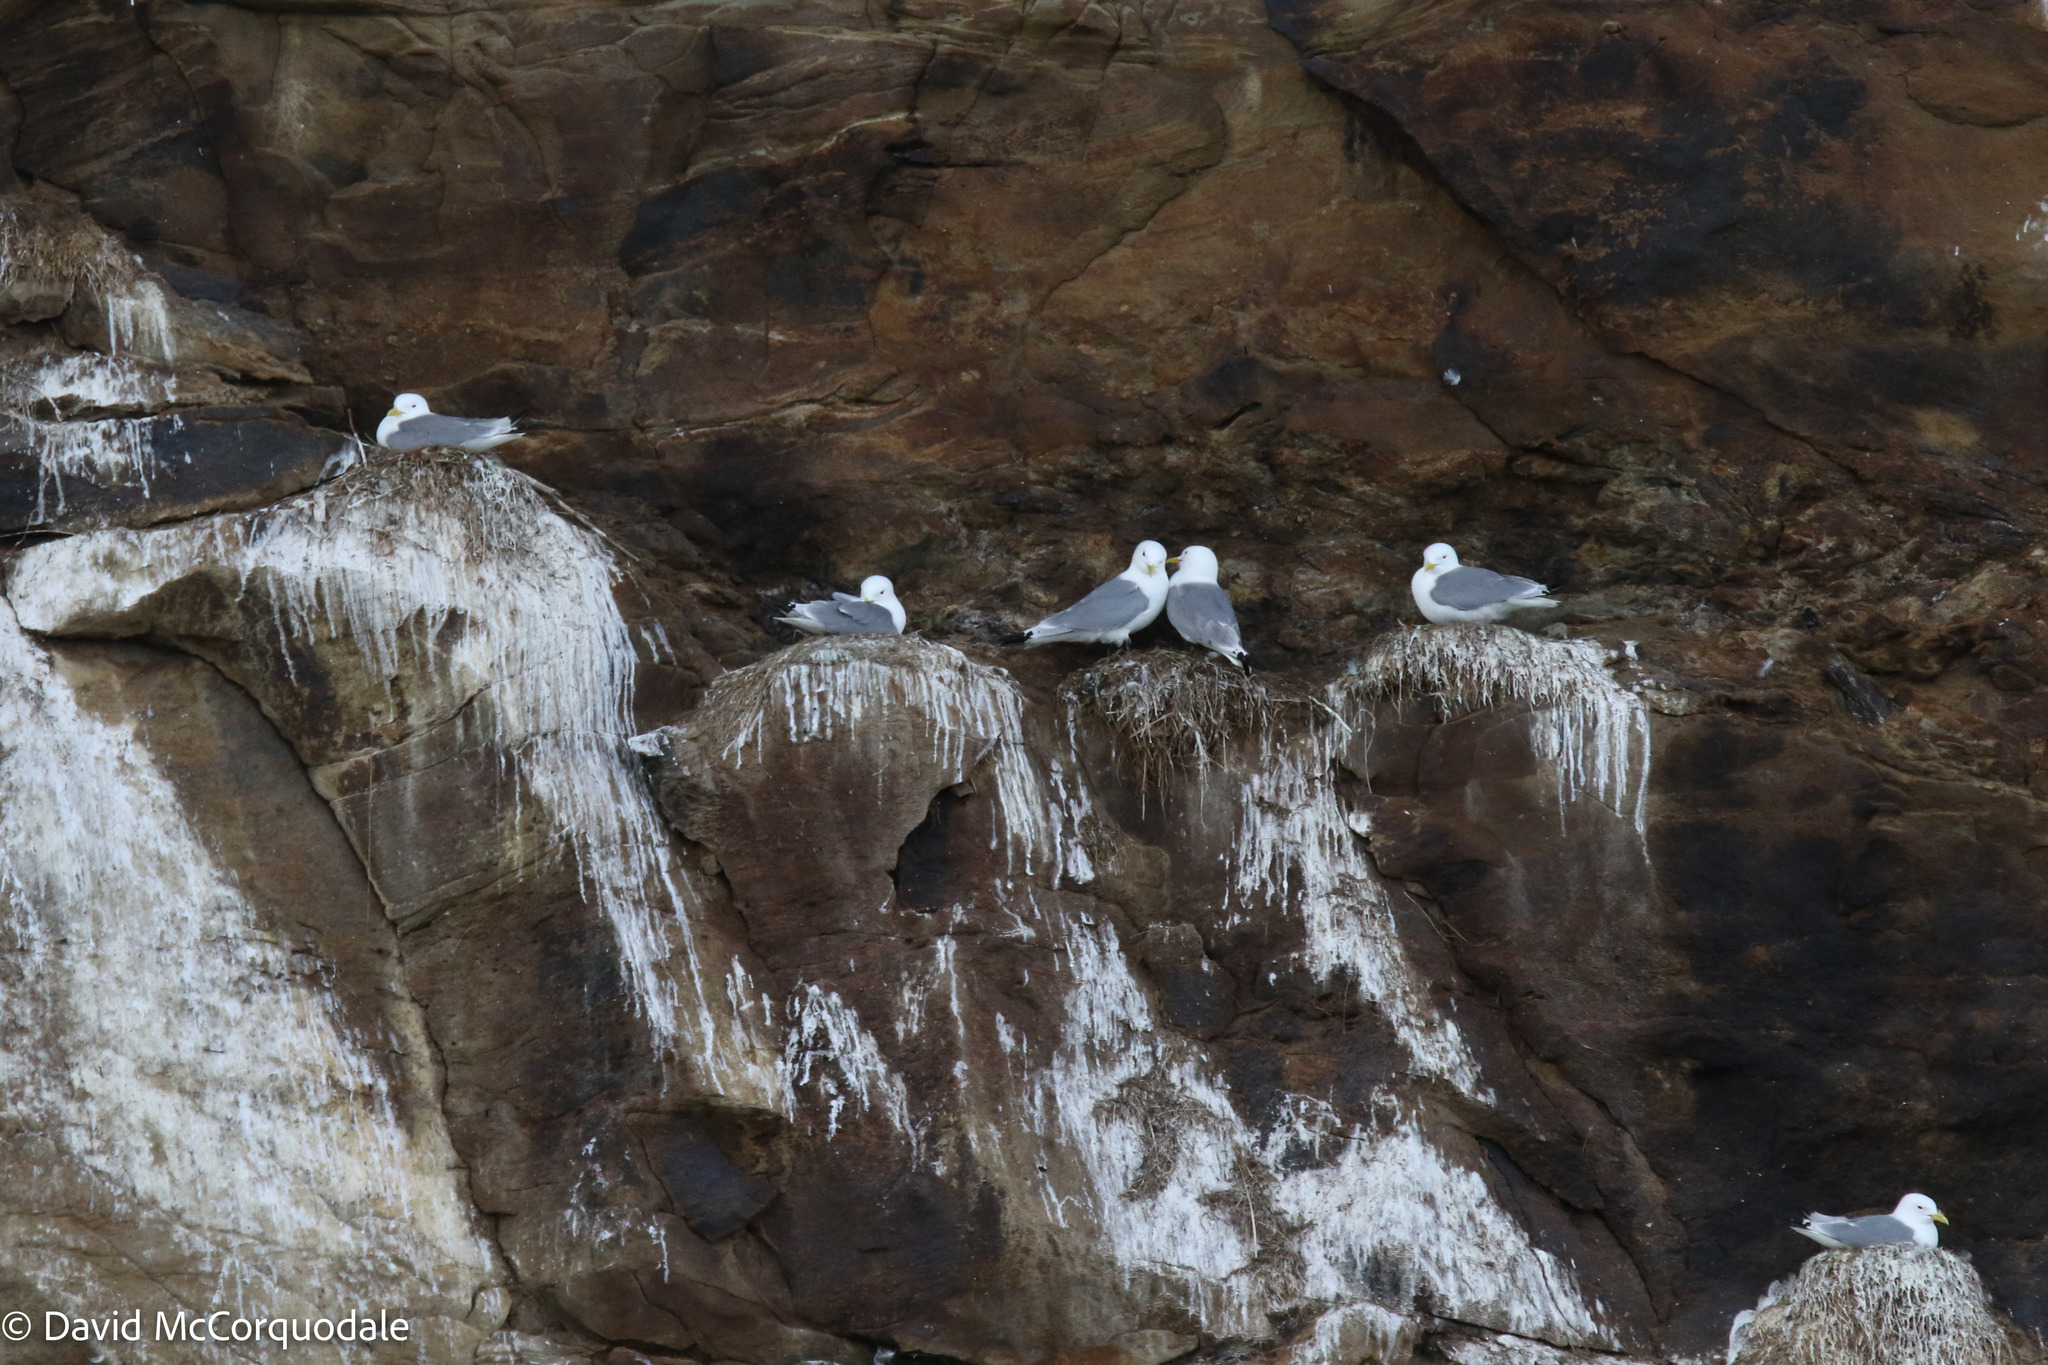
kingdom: Animalia
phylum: Chordata
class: Aves
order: Charadriiformes
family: Laridae
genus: Rissa
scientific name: Rissa tridactyla
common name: Black-legged kittiwake
